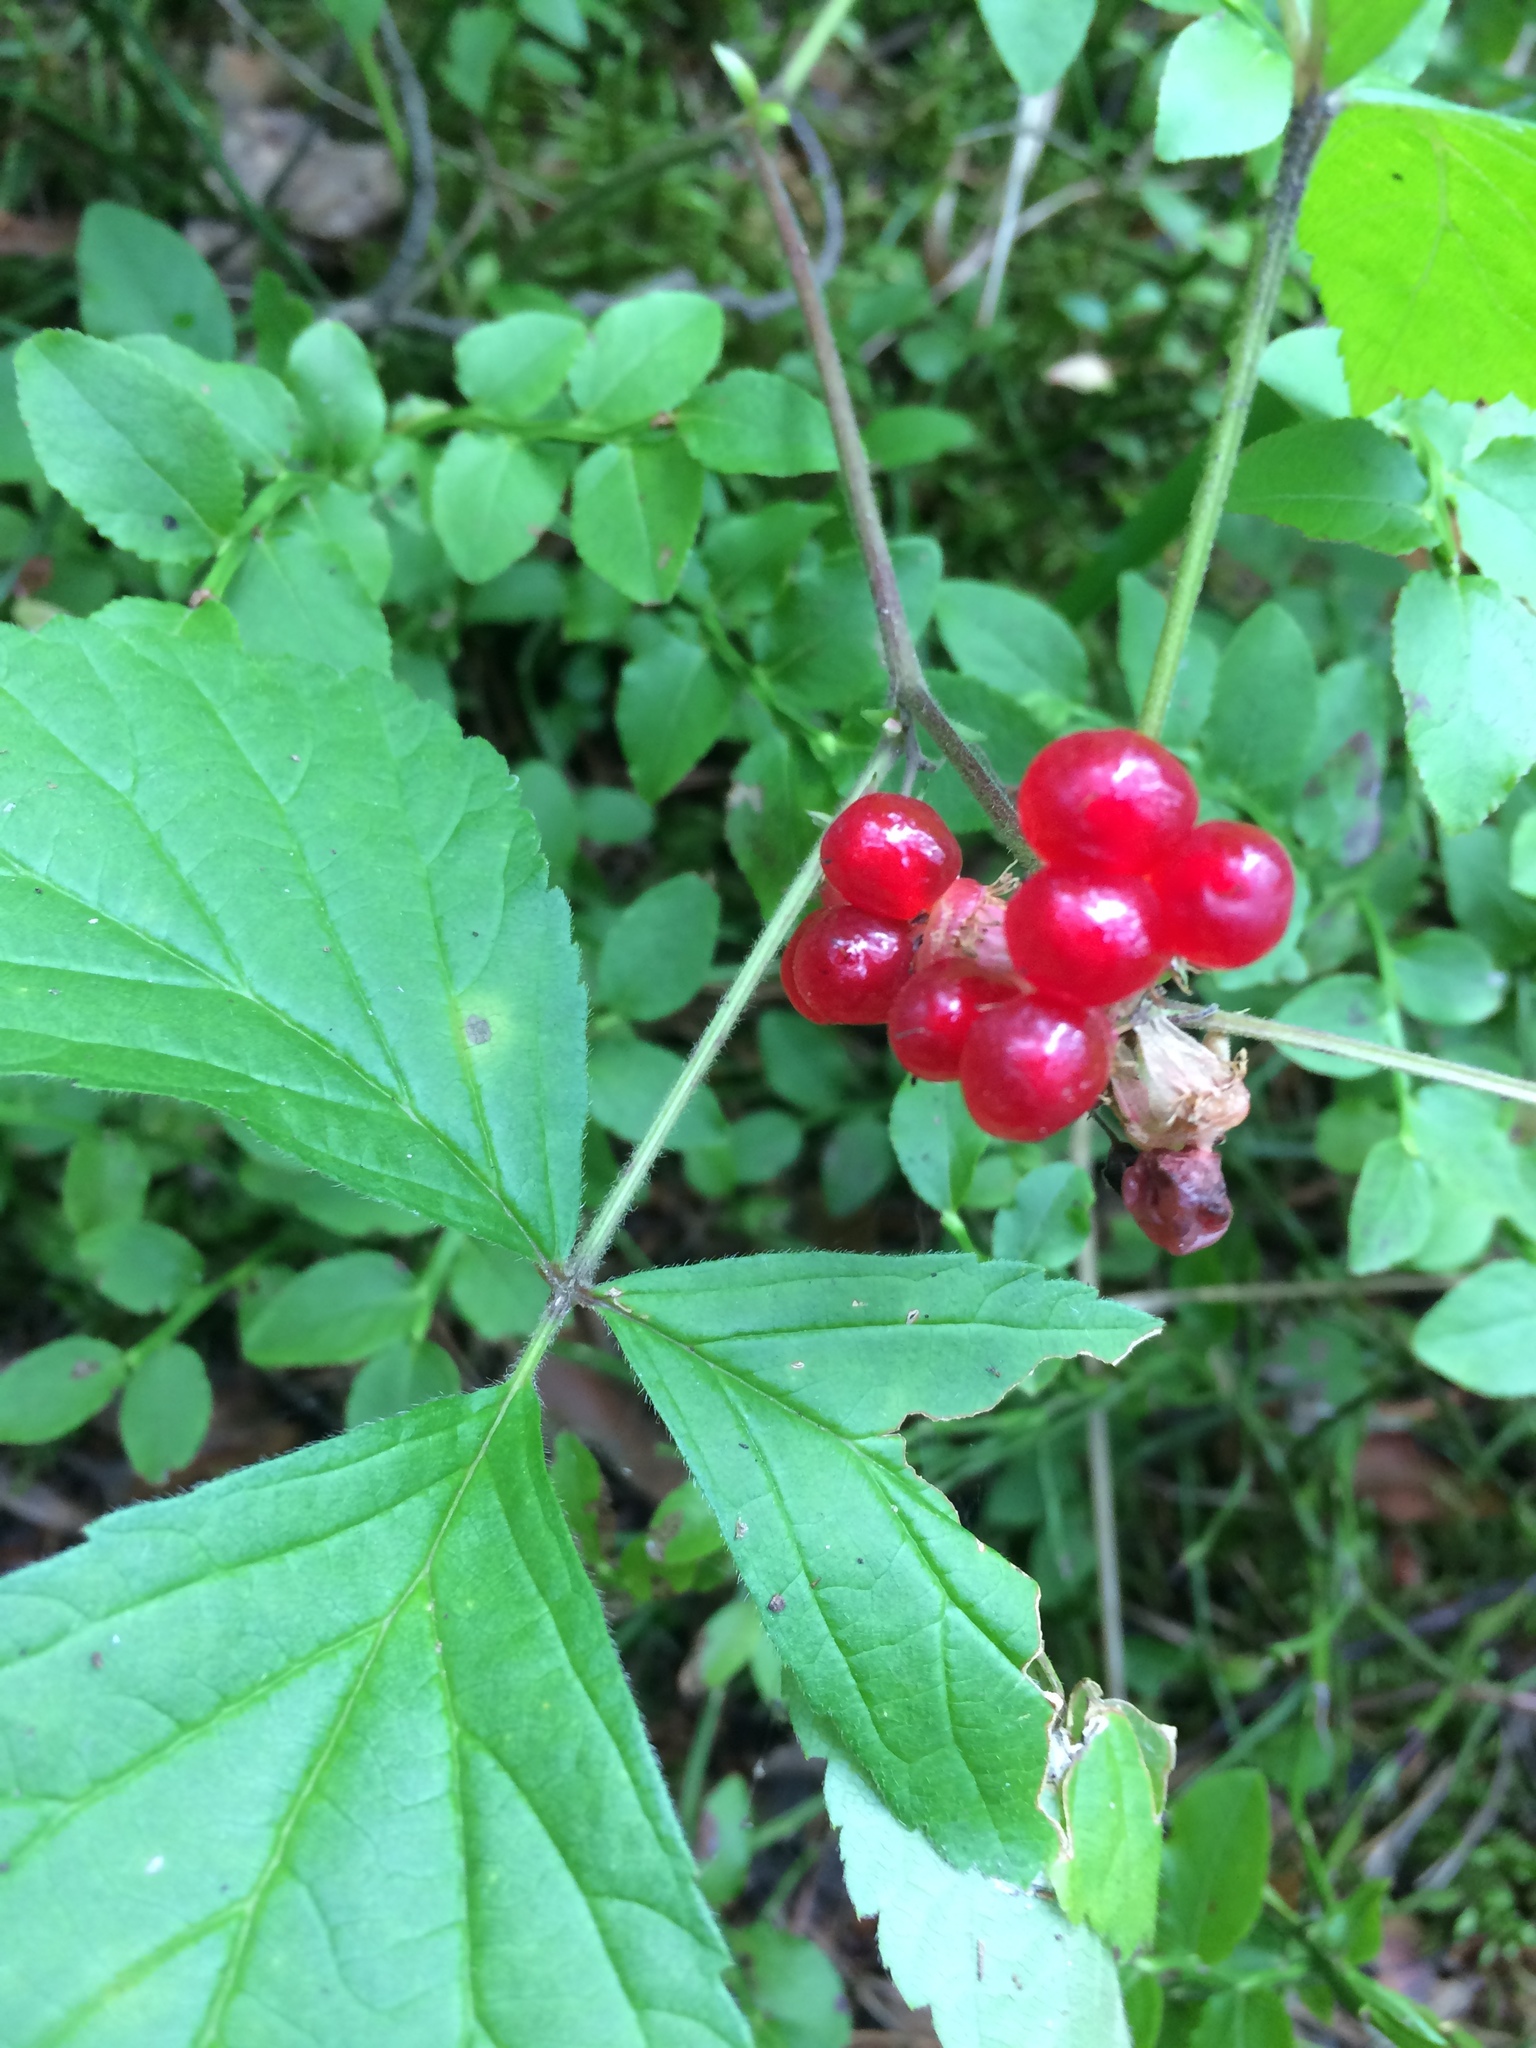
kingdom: Plantae
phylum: Tracheophyta
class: Magnoliopsida
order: Rosales
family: Rosaceae
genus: Rubus
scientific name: Rubus saxatilis
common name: Stone bramble
